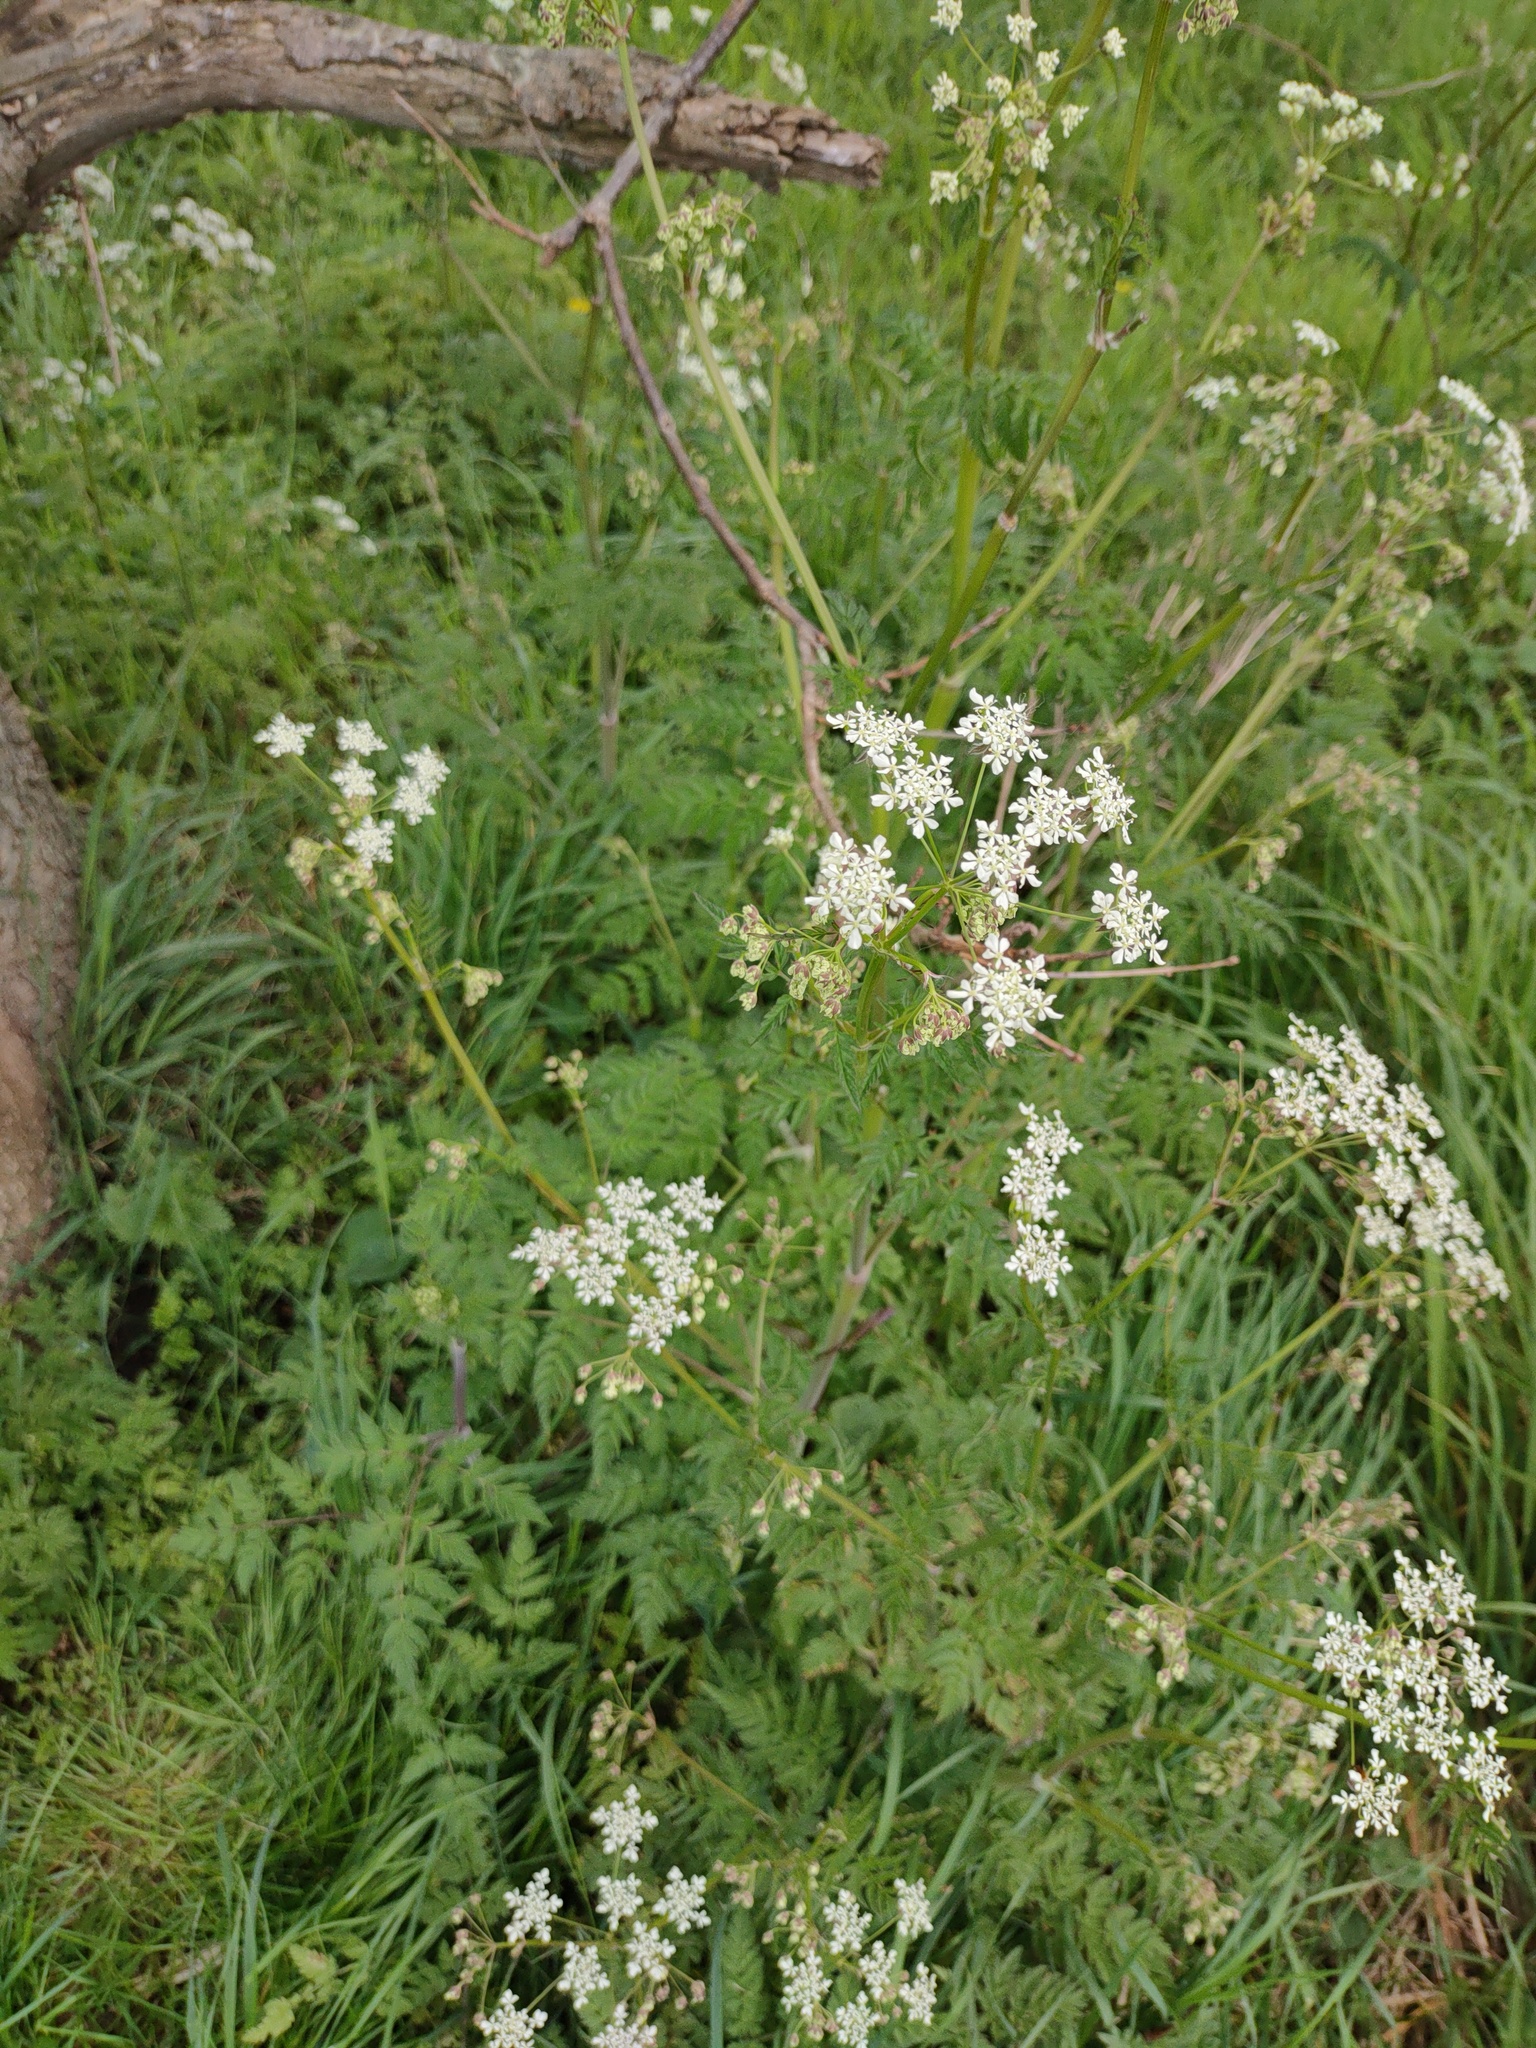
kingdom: Plantae
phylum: Tracheophyta
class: Magnoliopsida
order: Apiales
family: Apiaceae
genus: Anthriscus
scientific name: Anthriscus sylvestris
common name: Cow parsley
